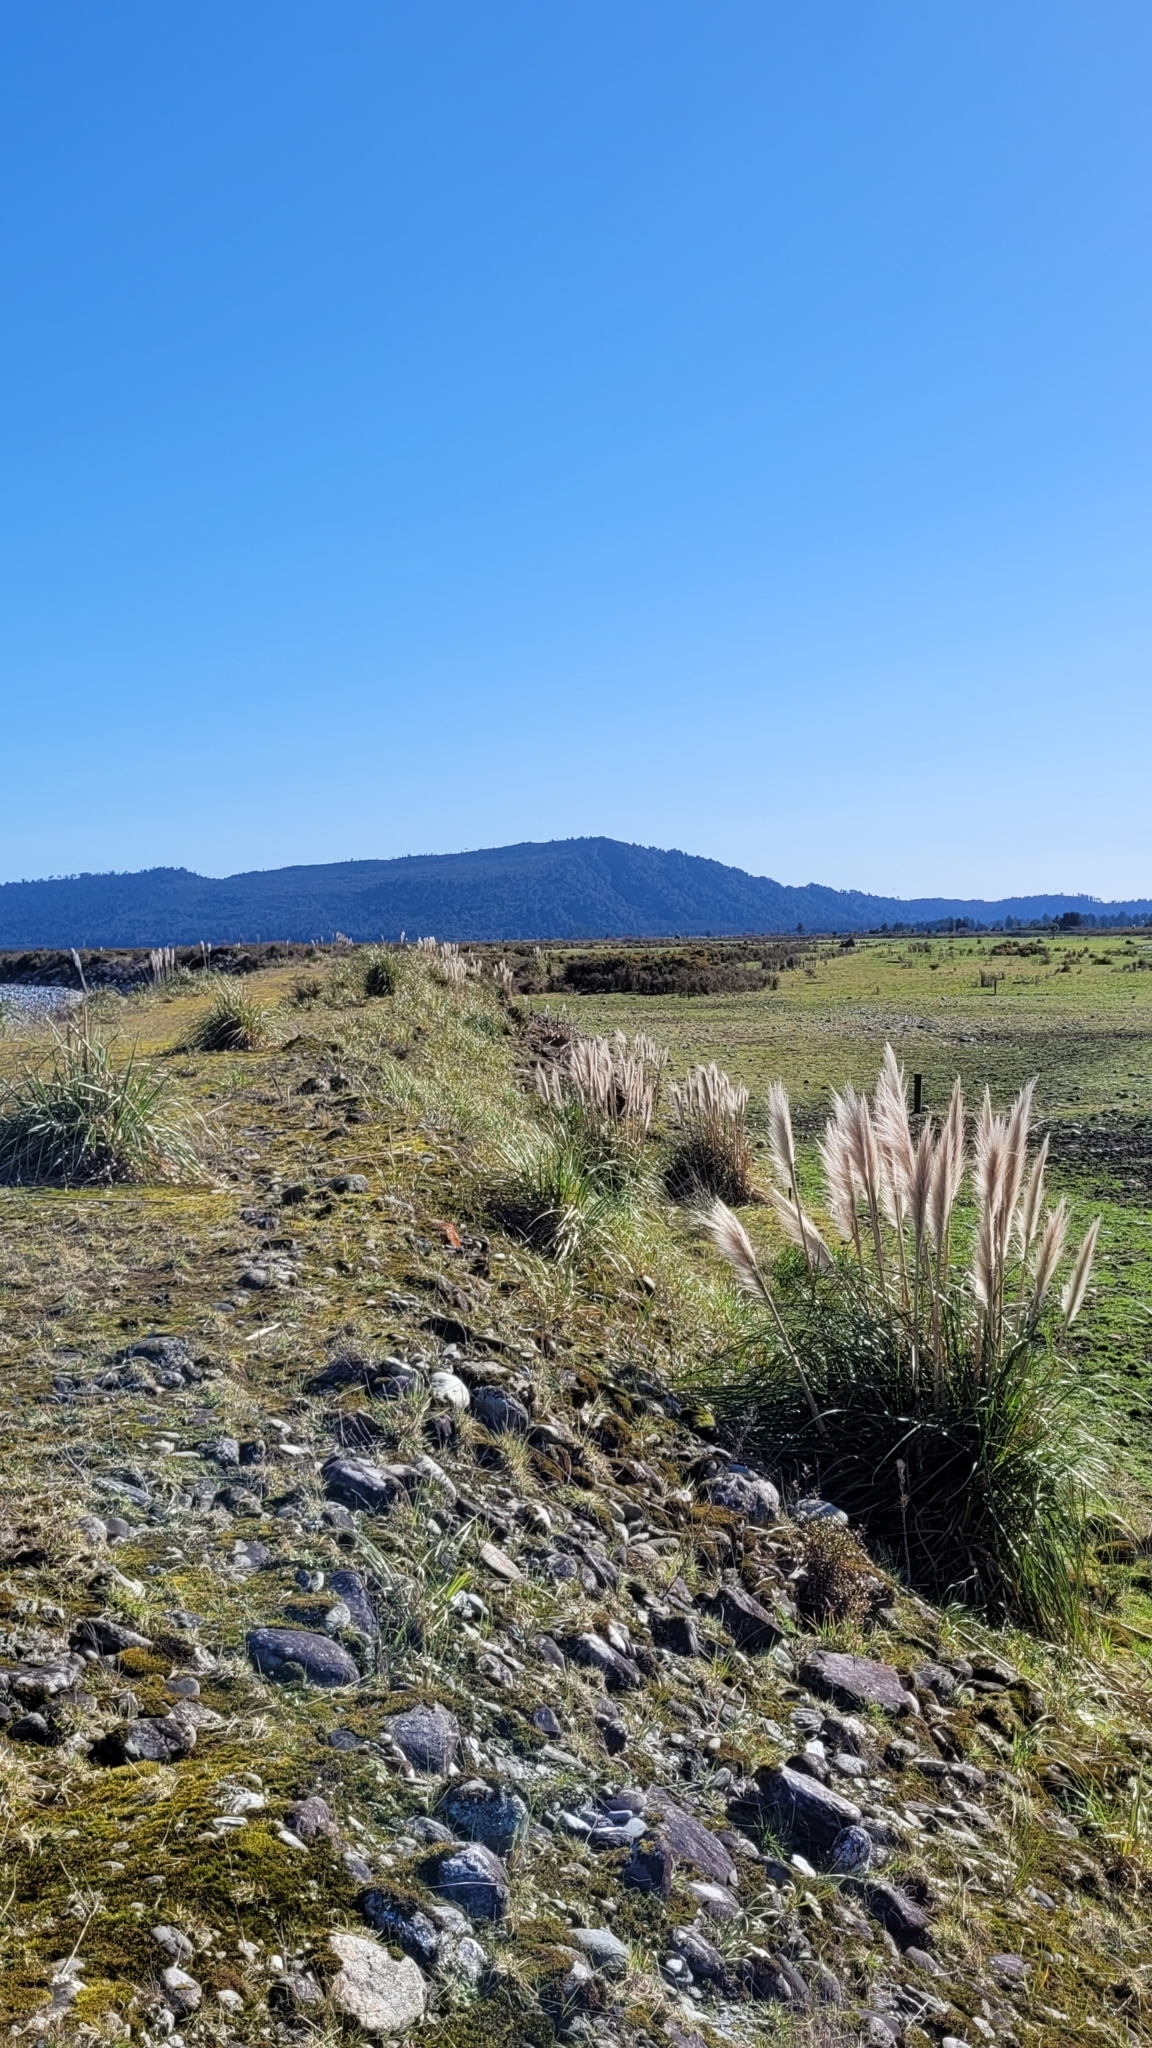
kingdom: Plantae
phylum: Tracheophyta
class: Liliopsida
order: Poales
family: Poaceae
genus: Cortaderia
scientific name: Cortaderia jubata
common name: Purple pampas grass
